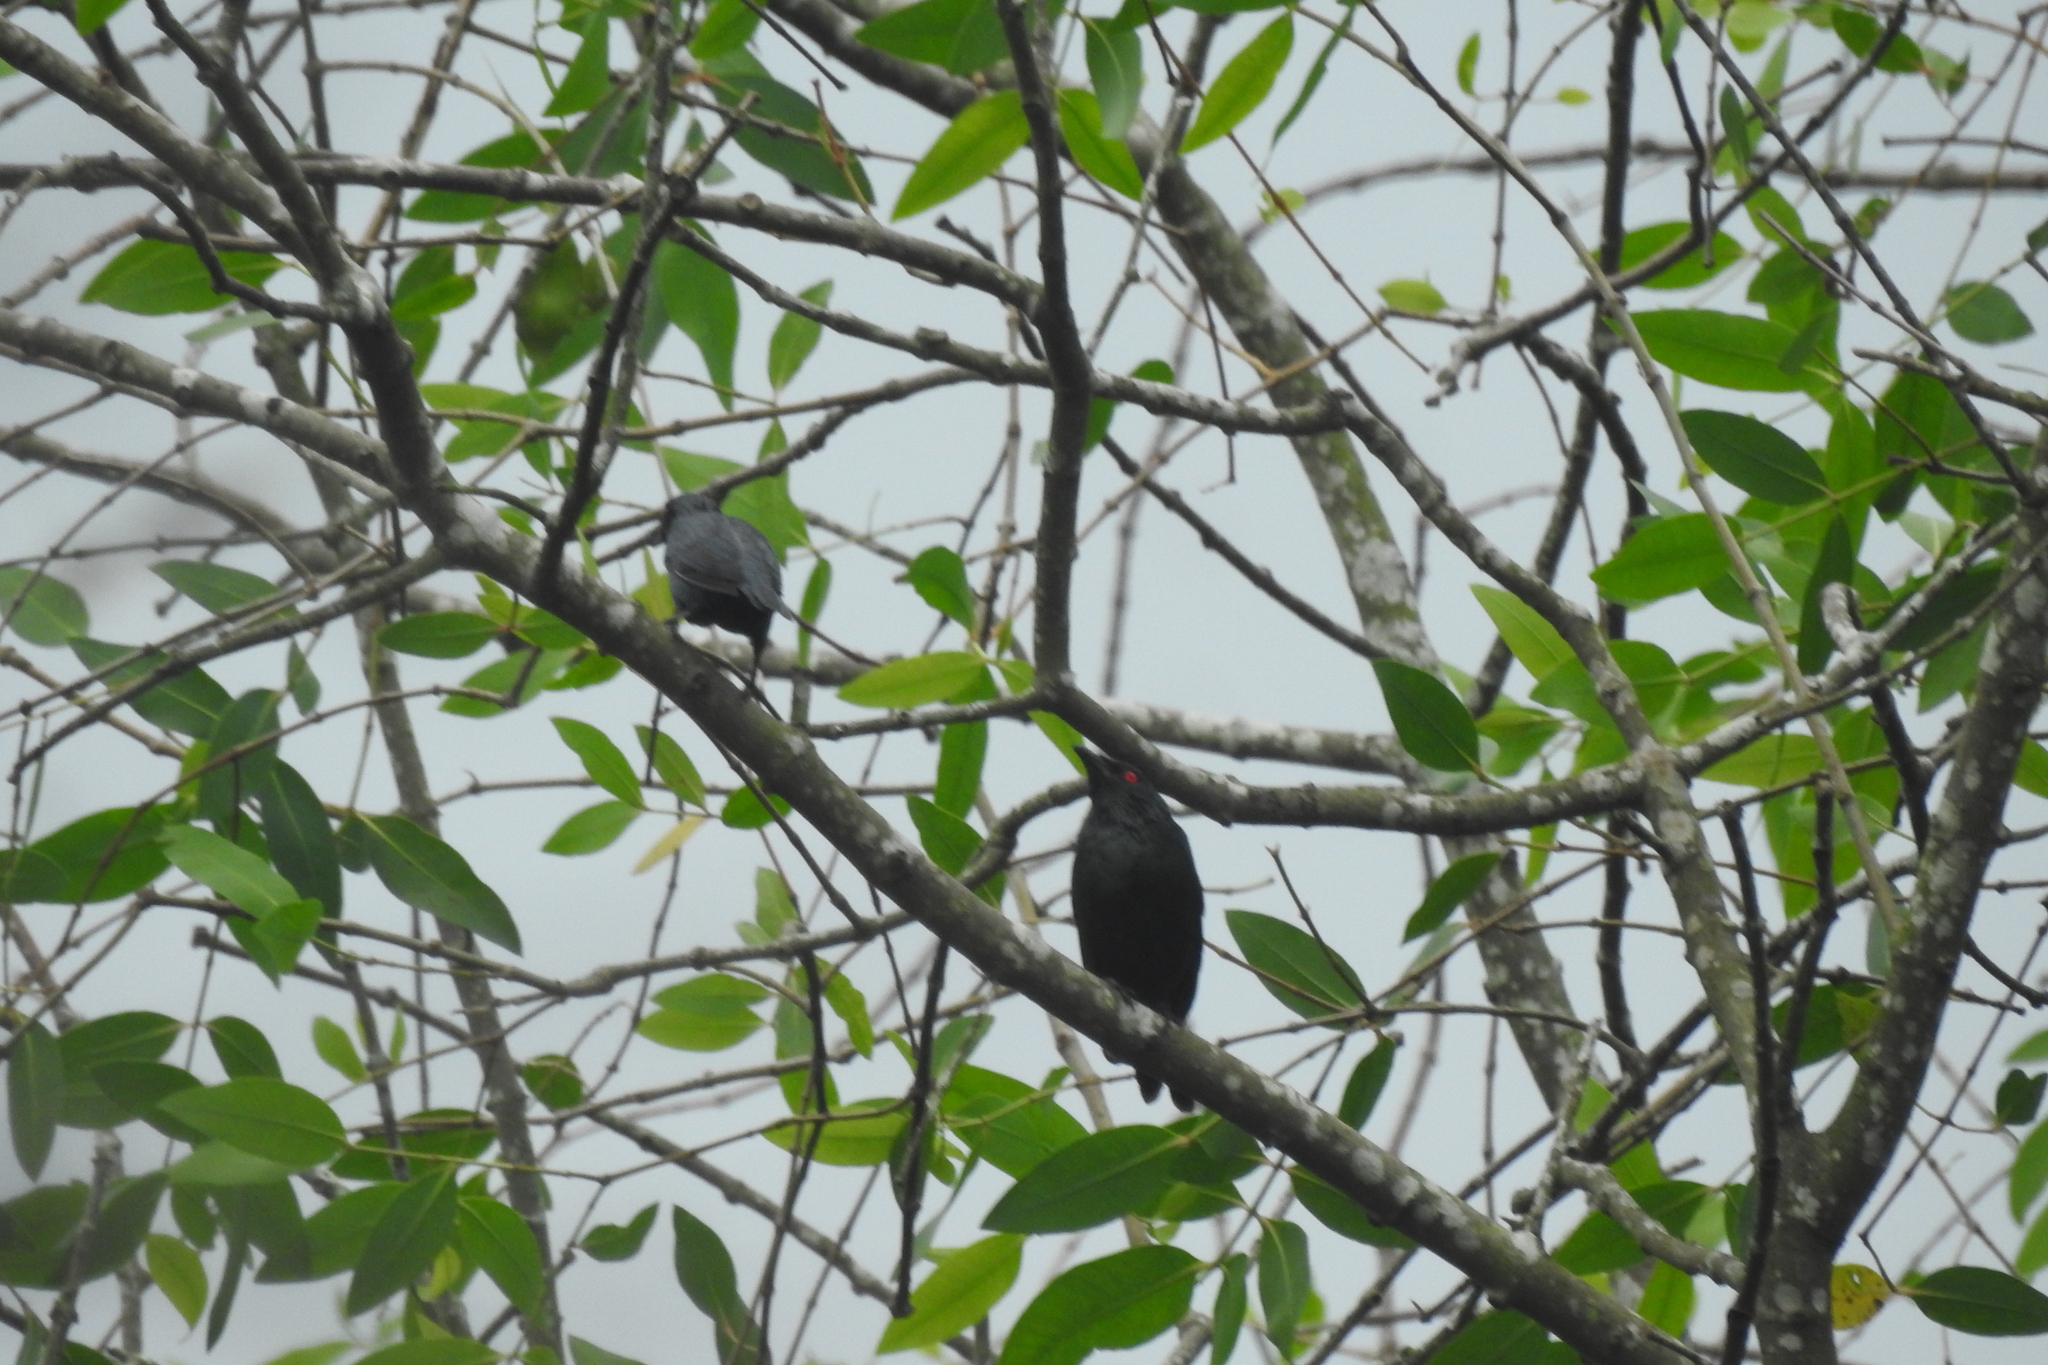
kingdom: Animalia
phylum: Chordata
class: Aves
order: Passeriformes
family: Sturnidae
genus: Aplonis
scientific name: Aplonis panayensis
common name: Asian glossy starling
